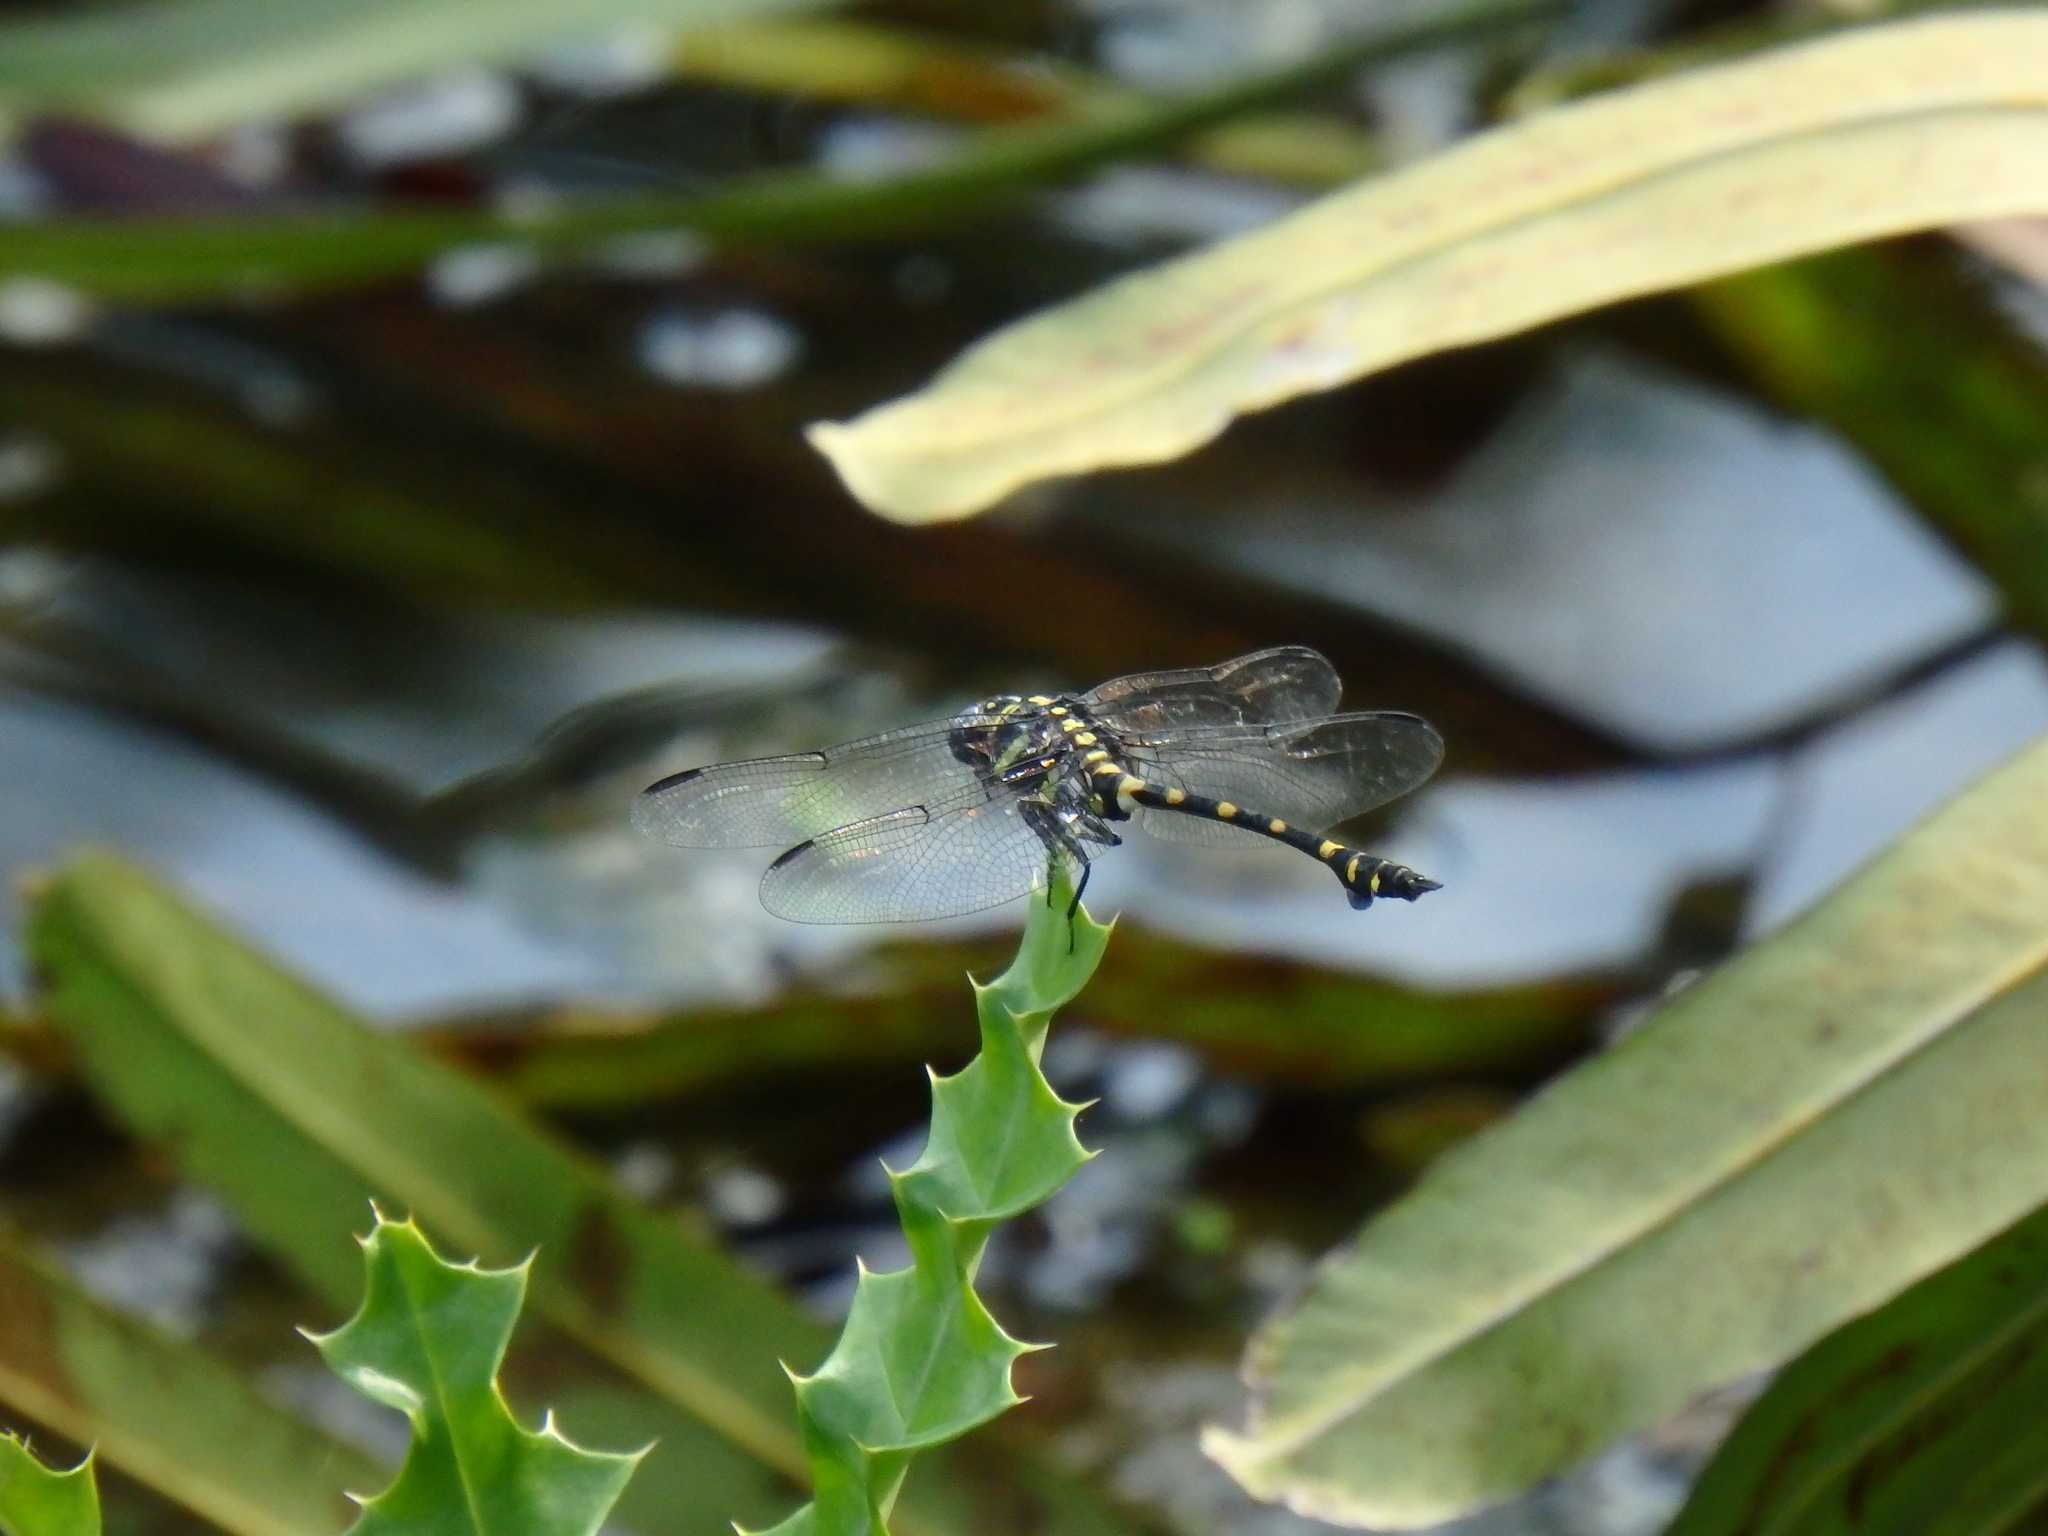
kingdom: Animalia
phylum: Arthropoda
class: Insecta
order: Odonata
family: Gomphidae
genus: Ictinogomphus
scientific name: Ictinogomphus decoratus
